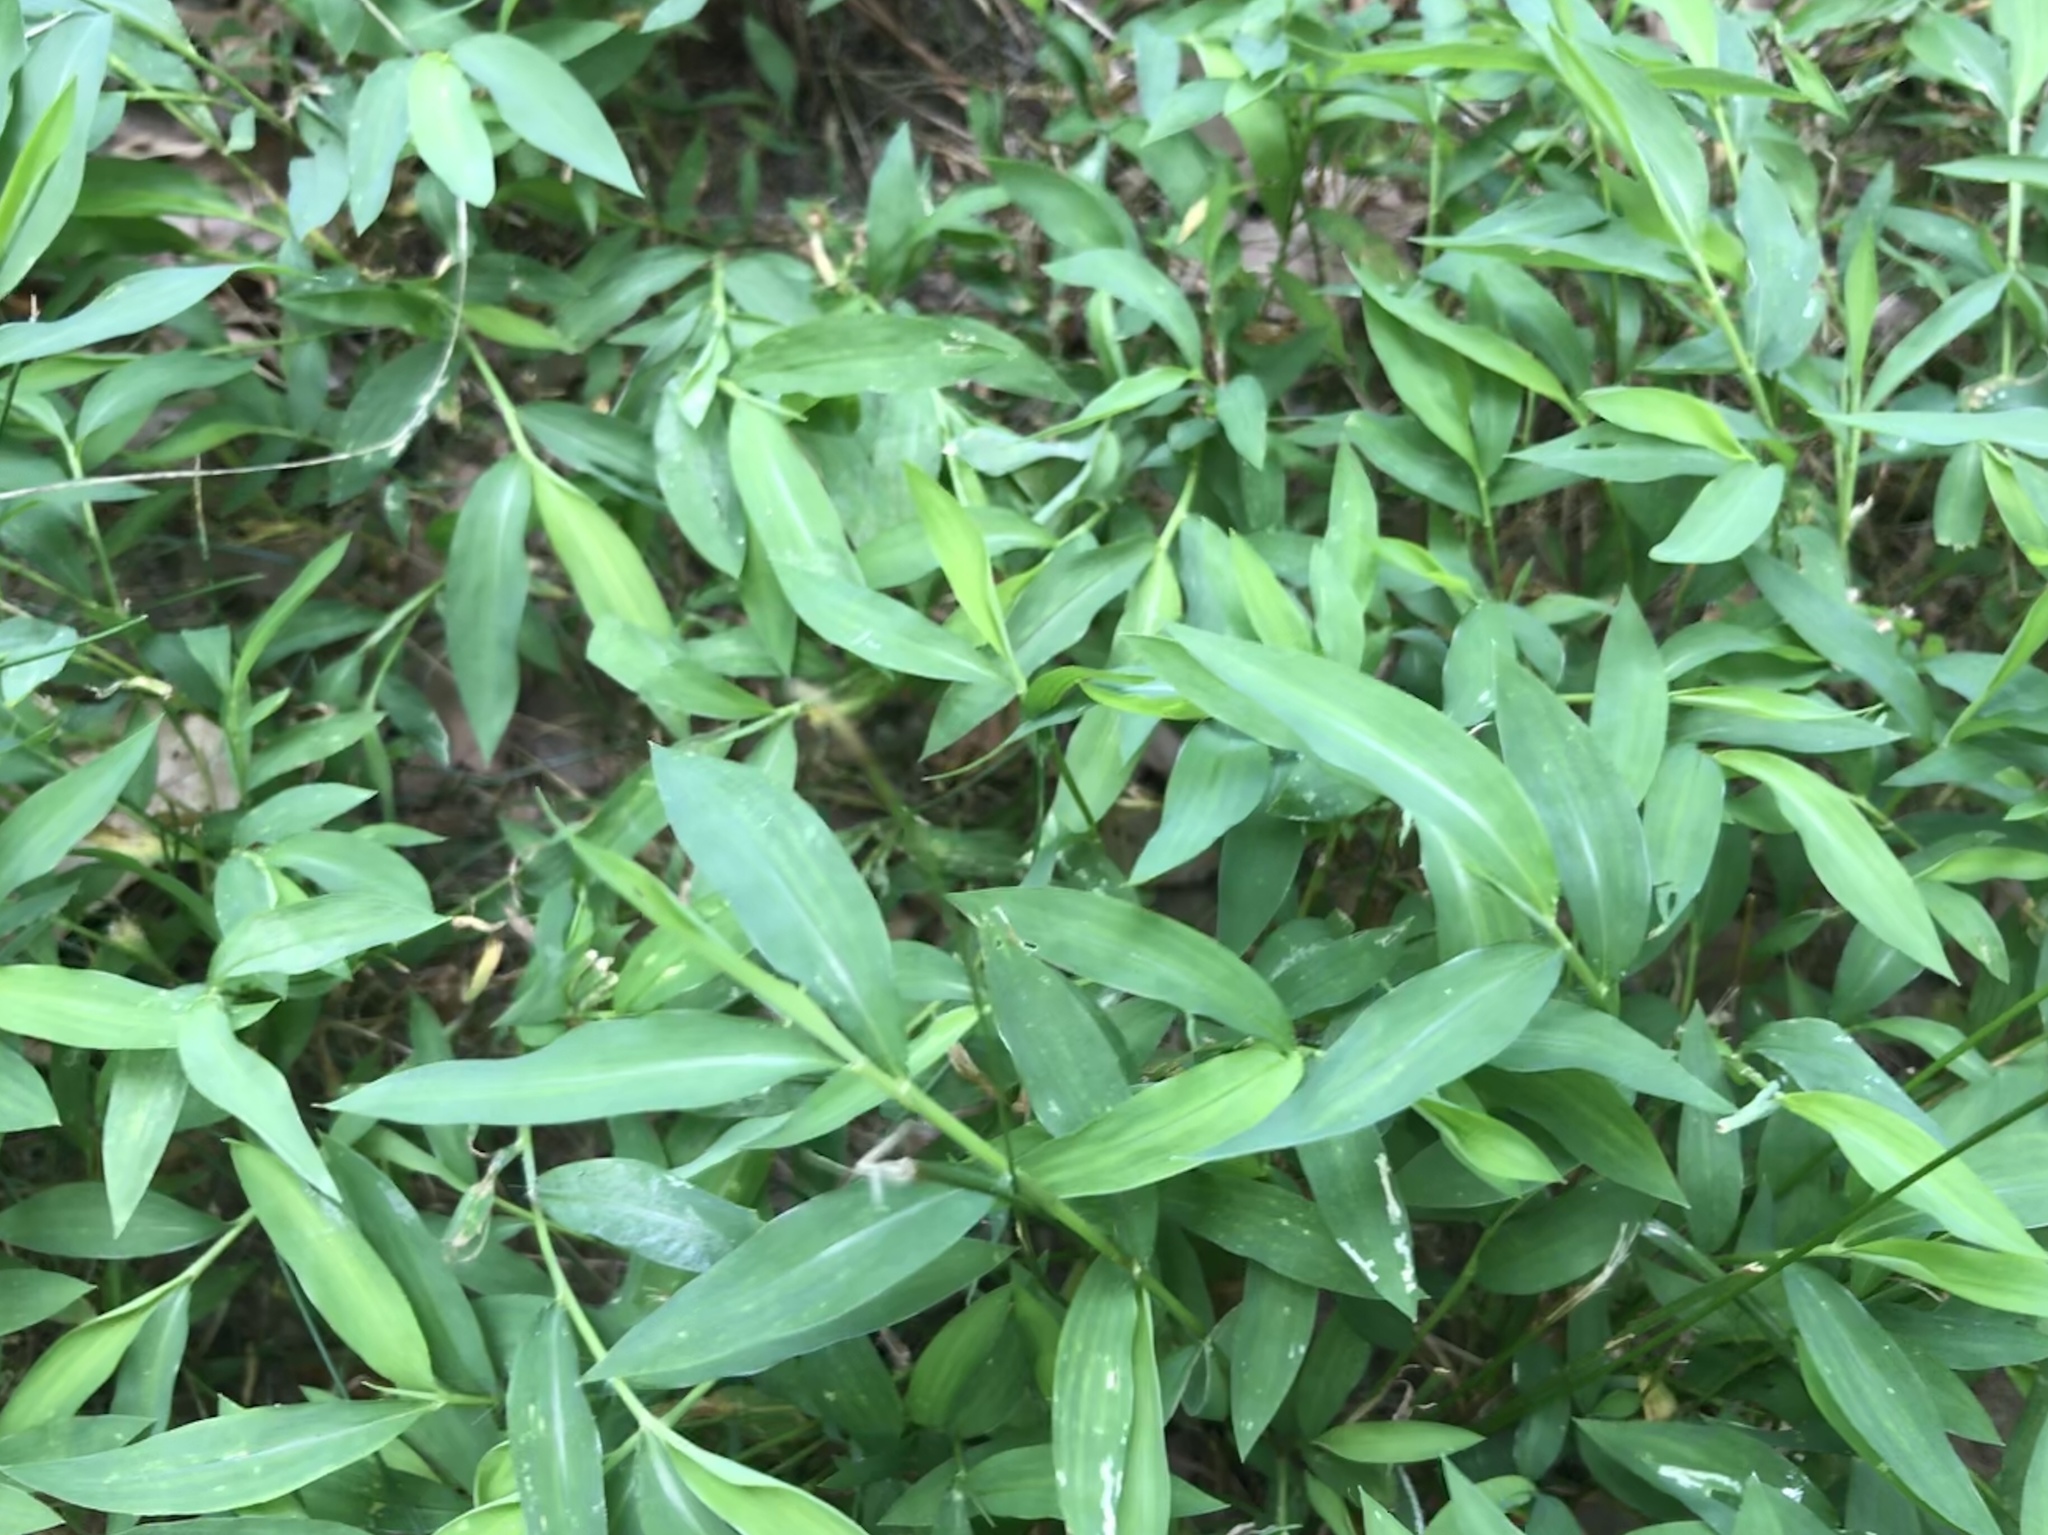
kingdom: Plantae
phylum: Tracheophyta
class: Liliopsida
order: Poales
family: Poaceae
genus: Microstegium
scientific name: Microstegium vimineum
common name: Japanese stiltgrass
